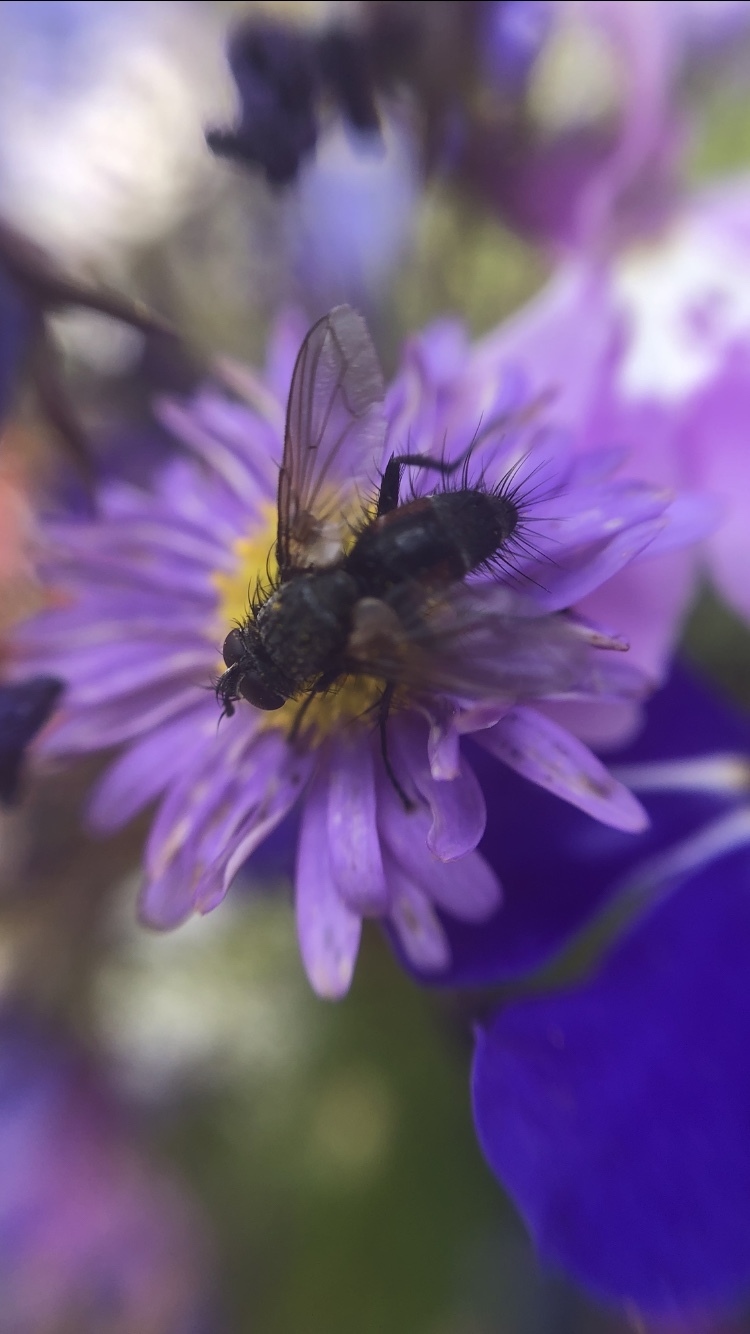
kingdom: Animalia
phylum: Arthropoda
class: Insecta
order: Diptera
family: Tachinidae
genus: Eriothrix
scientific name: Eriothrix rufomaculatus
